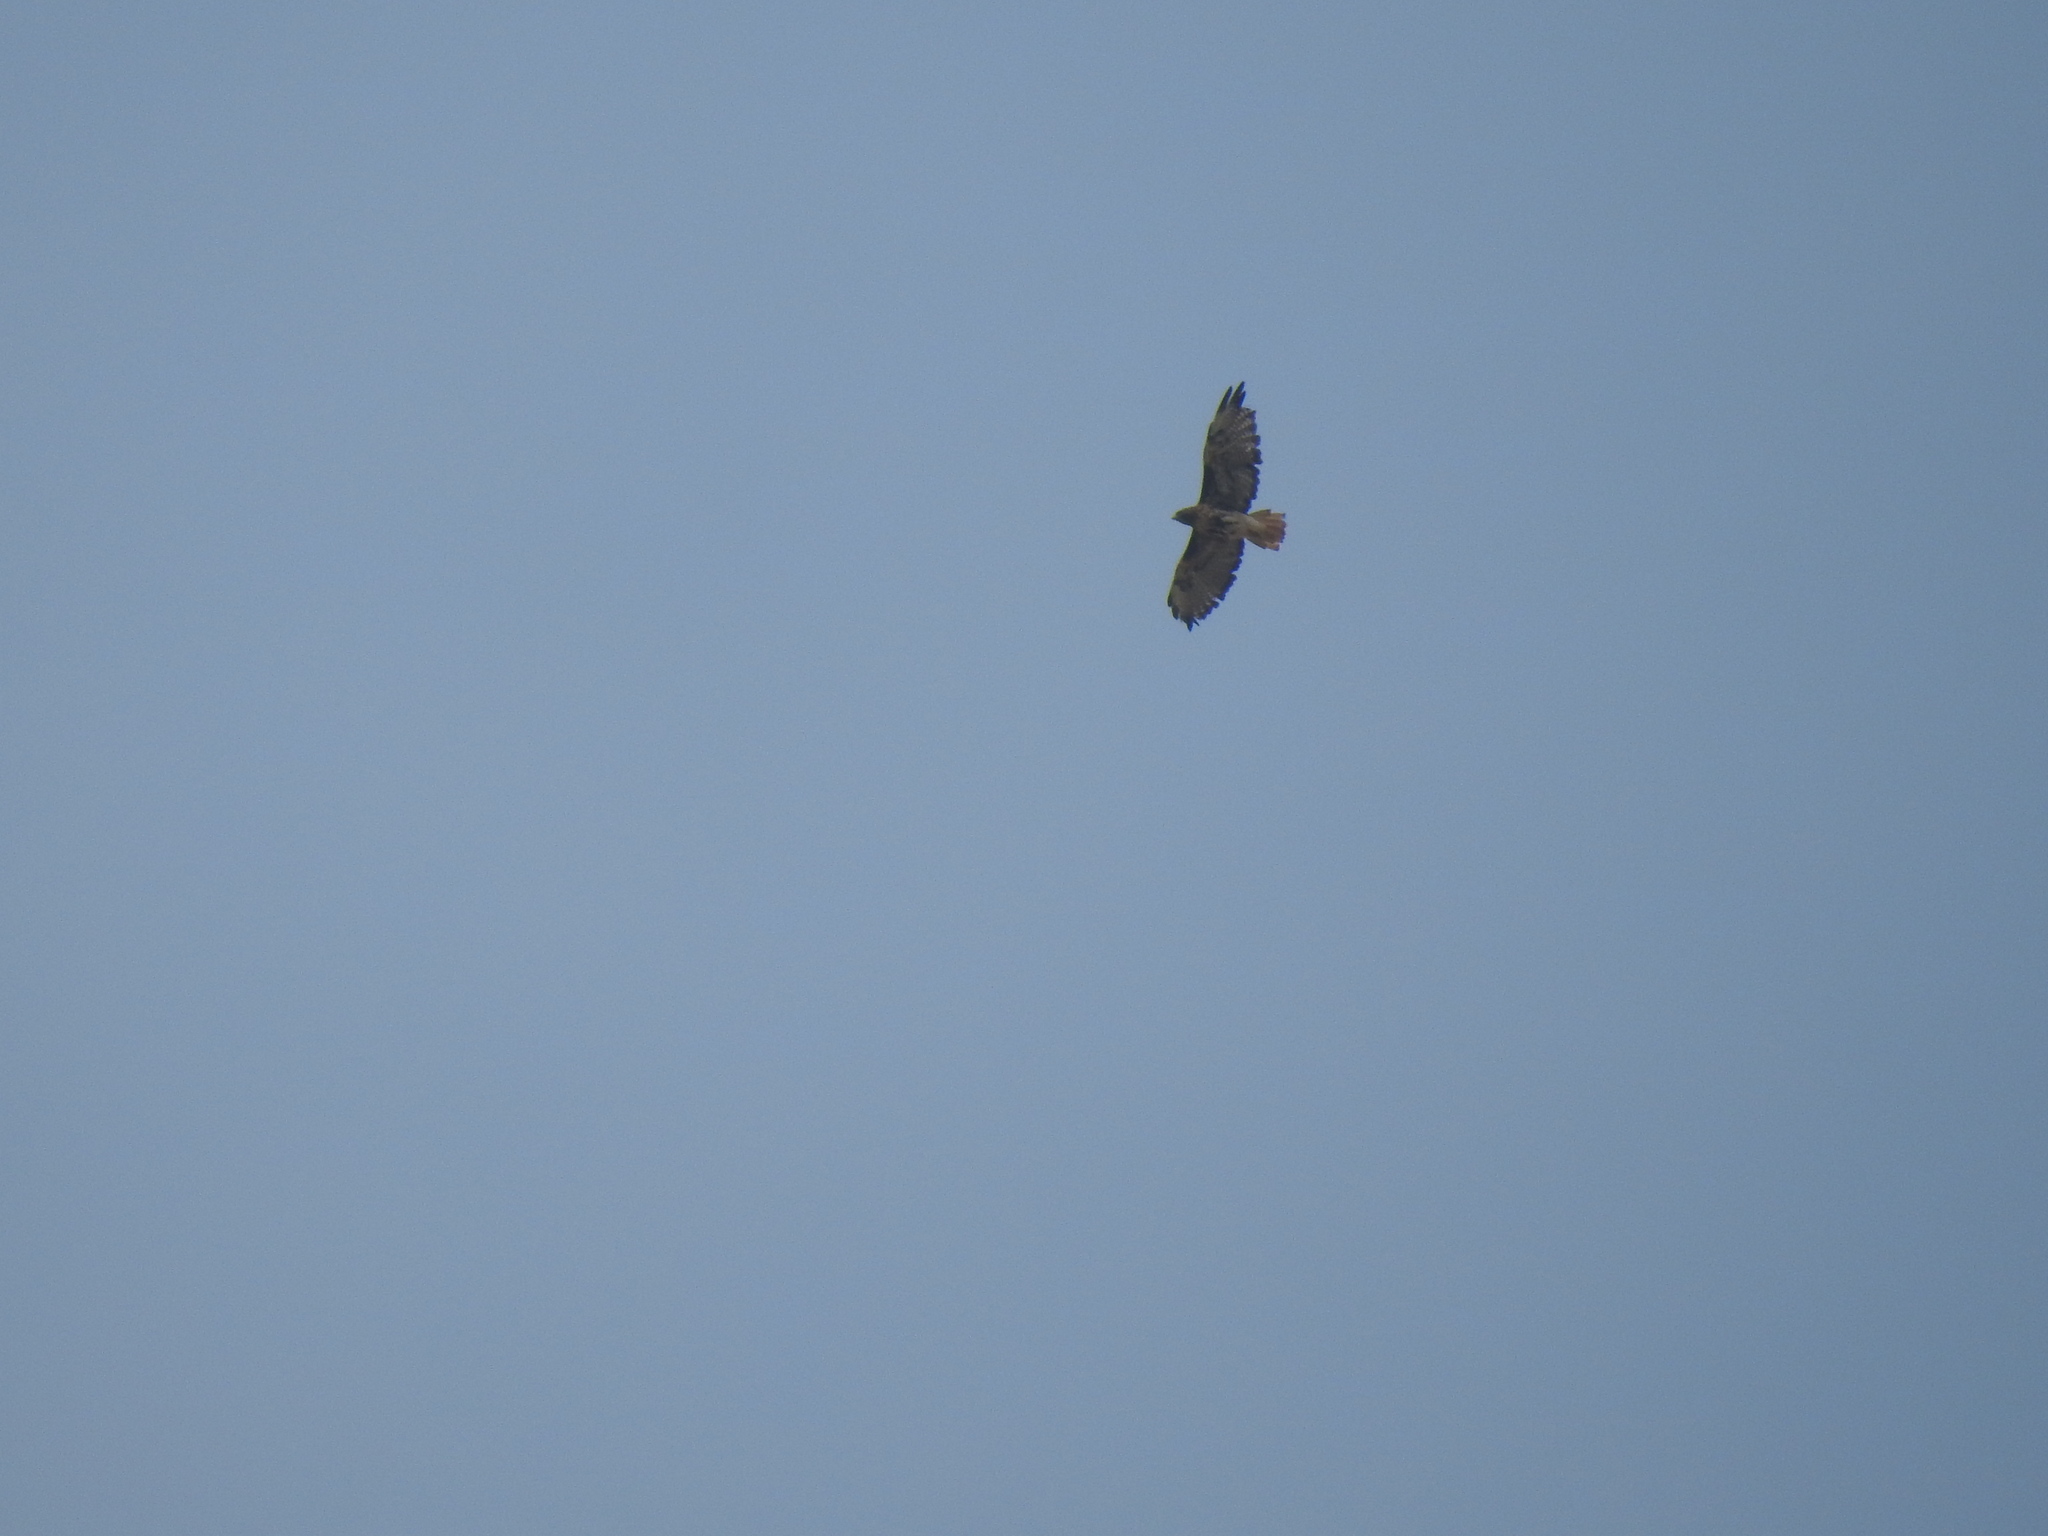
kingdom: Animalia
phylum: Chordata
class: Aves
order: Accipitriformes
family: Accipitridae
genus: Buteo
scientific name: Buteo jamaicensis
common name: Red-tailed hawk
